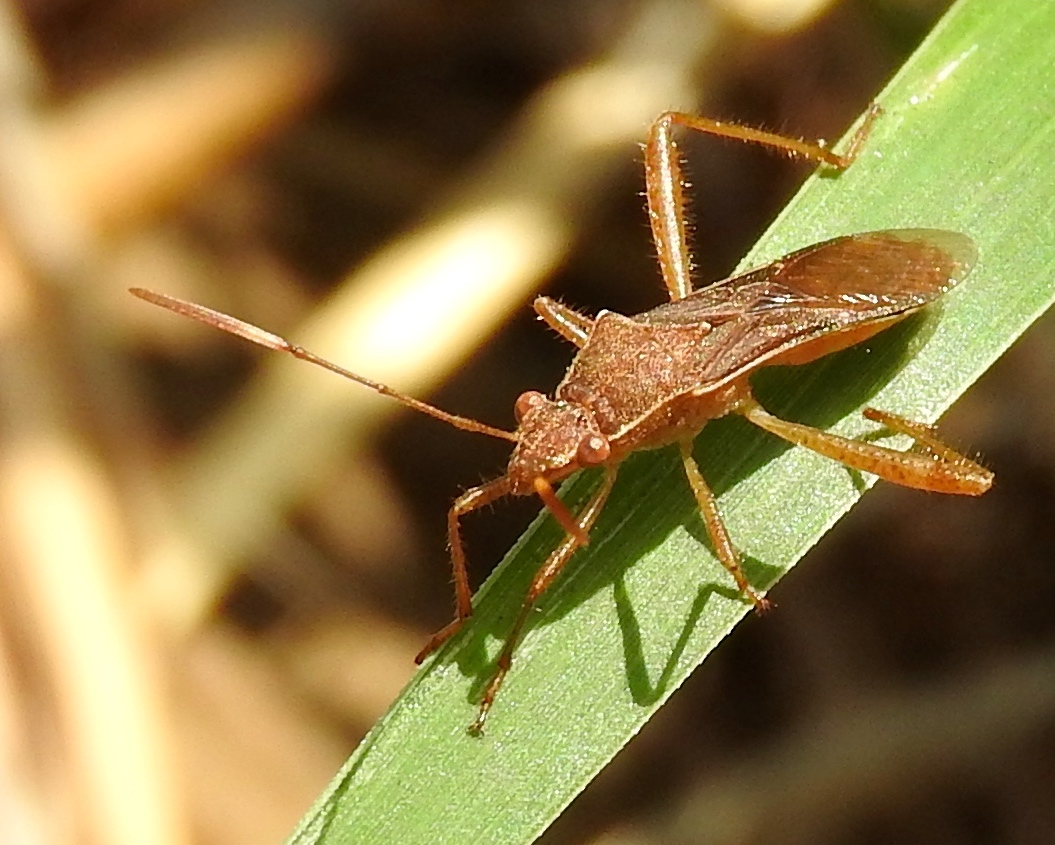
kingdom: Animalia
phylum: Arthropoda
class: Insecta
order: Hemiptera
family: Alydidae
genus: Burtinus
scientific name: Burtinus notatipennis
